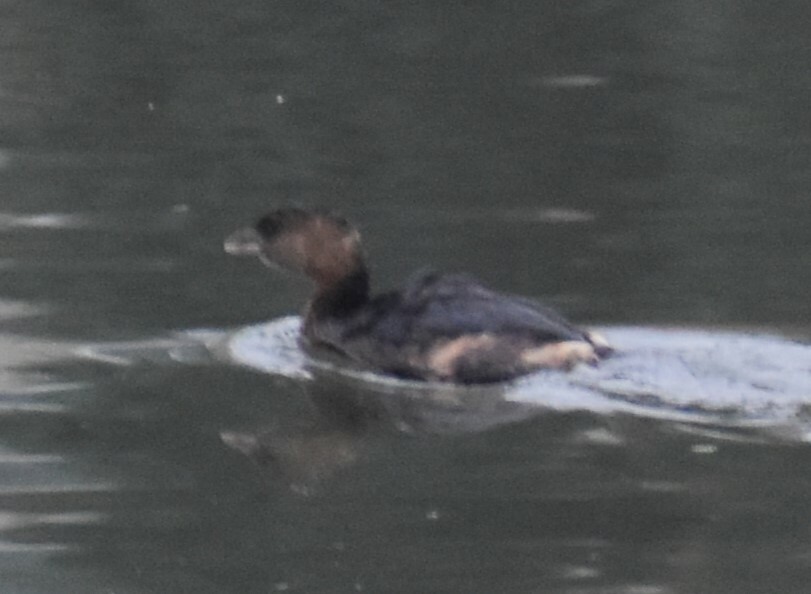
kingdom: Animalia
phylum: Chordata
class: Aves
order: Podicipediformes
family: Podicipedidae
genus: Podilymbus
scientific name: Podilymbus podiceps
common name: Pied-billed grebe
